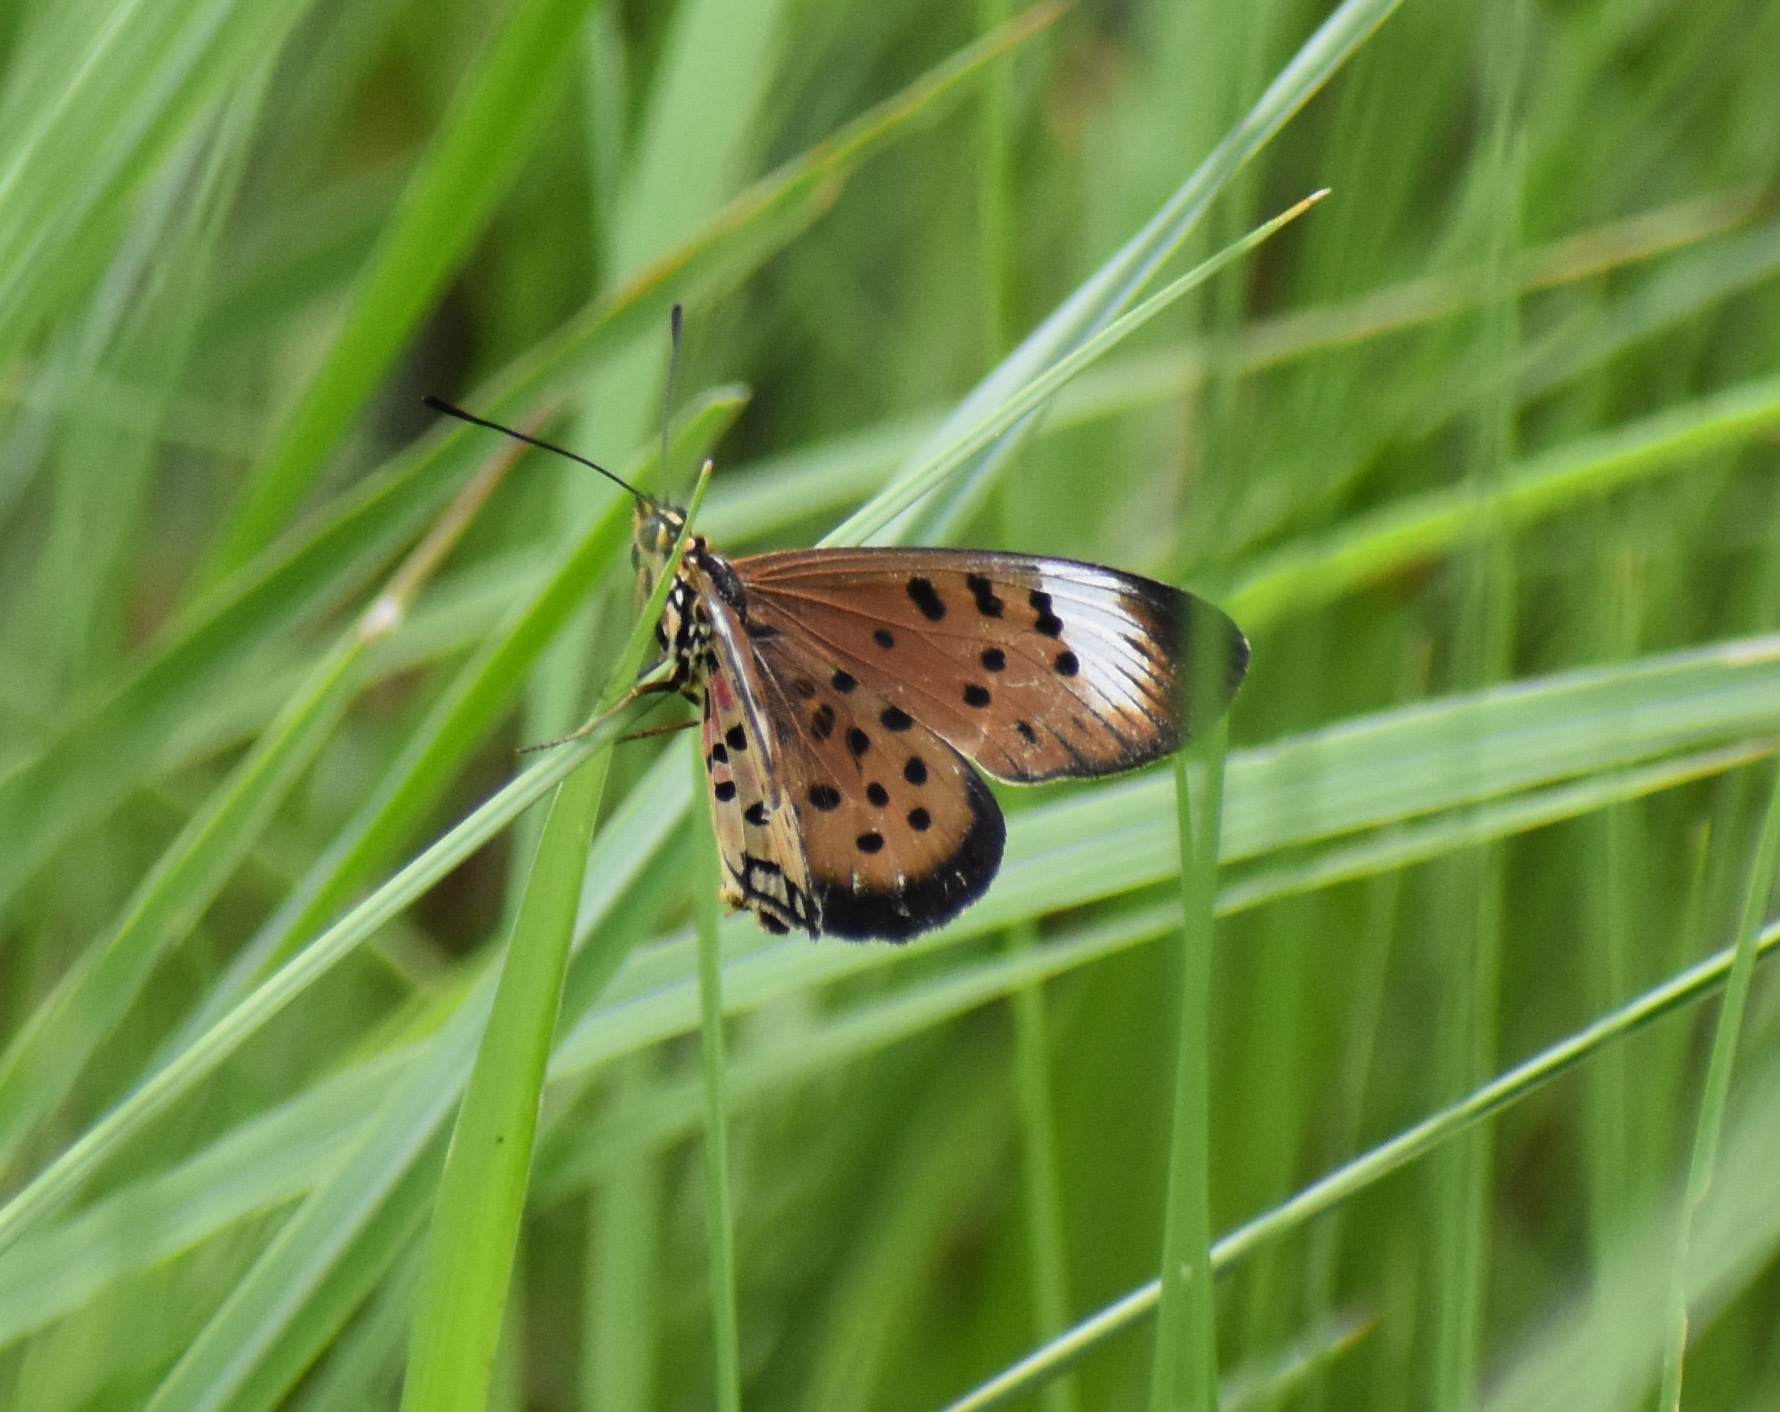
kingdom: Animalia
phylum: Arthropoda
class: Insecta
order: Lepidoptera
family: Nymphalidae
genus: Stephenia
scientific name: Stephenia
